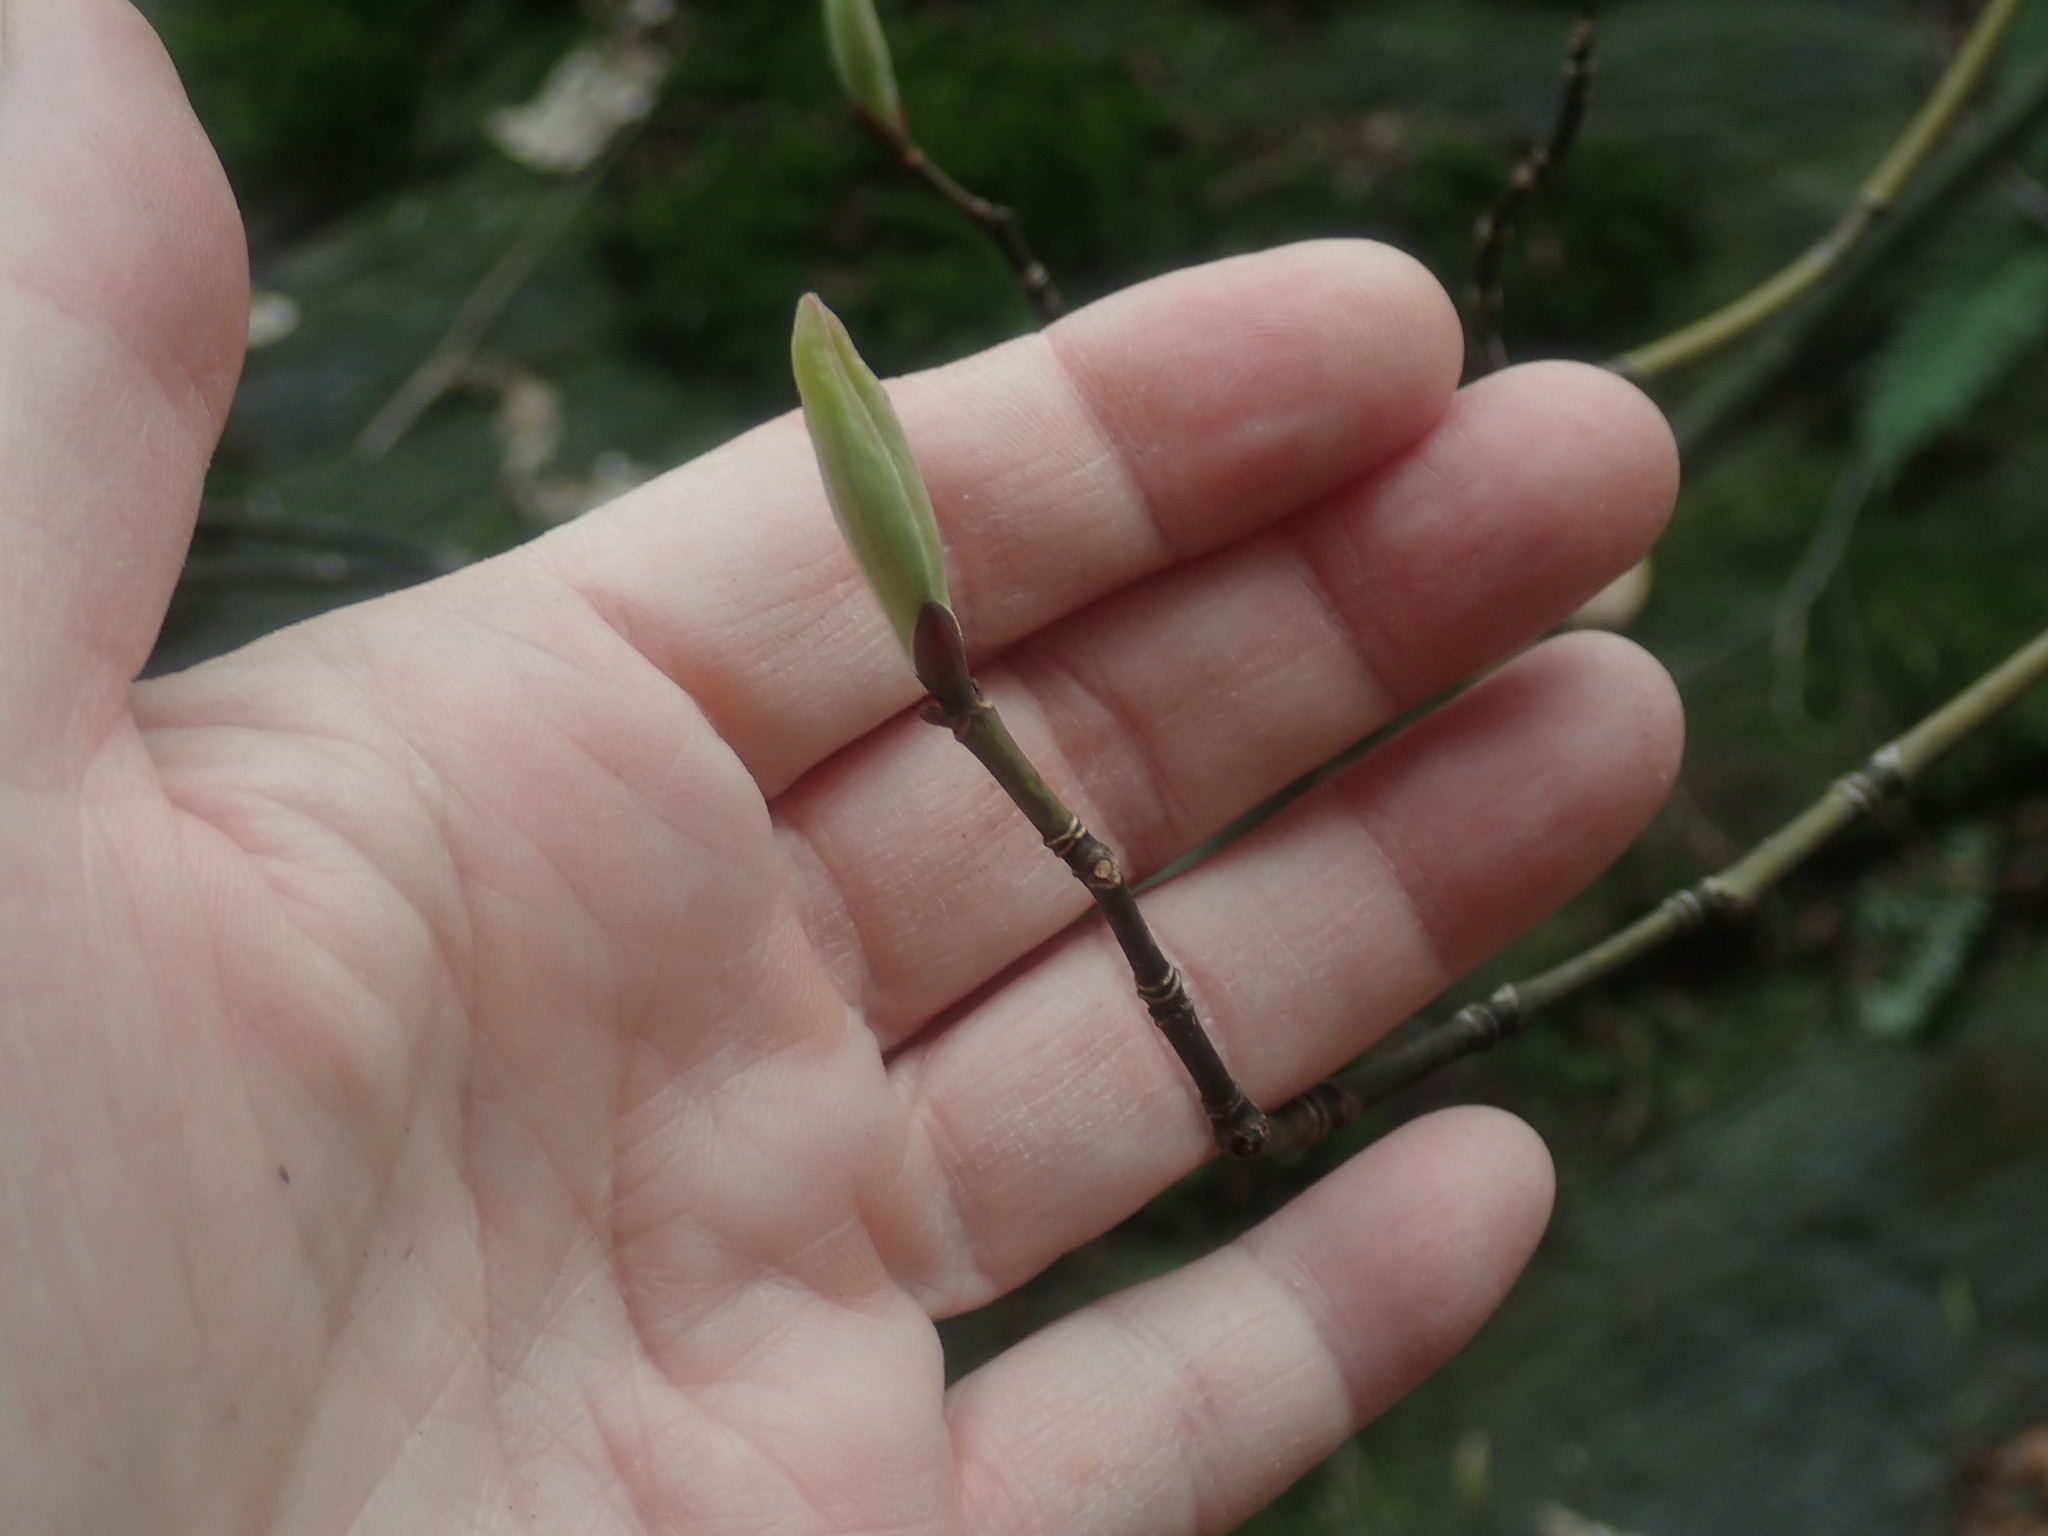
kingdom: Plantae
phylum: Tracheophyta
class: Magnoliopsida
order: Sapindales
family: Sapindaceae
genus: Acer
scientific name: Acer pensylvanicum
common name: Moosewood
